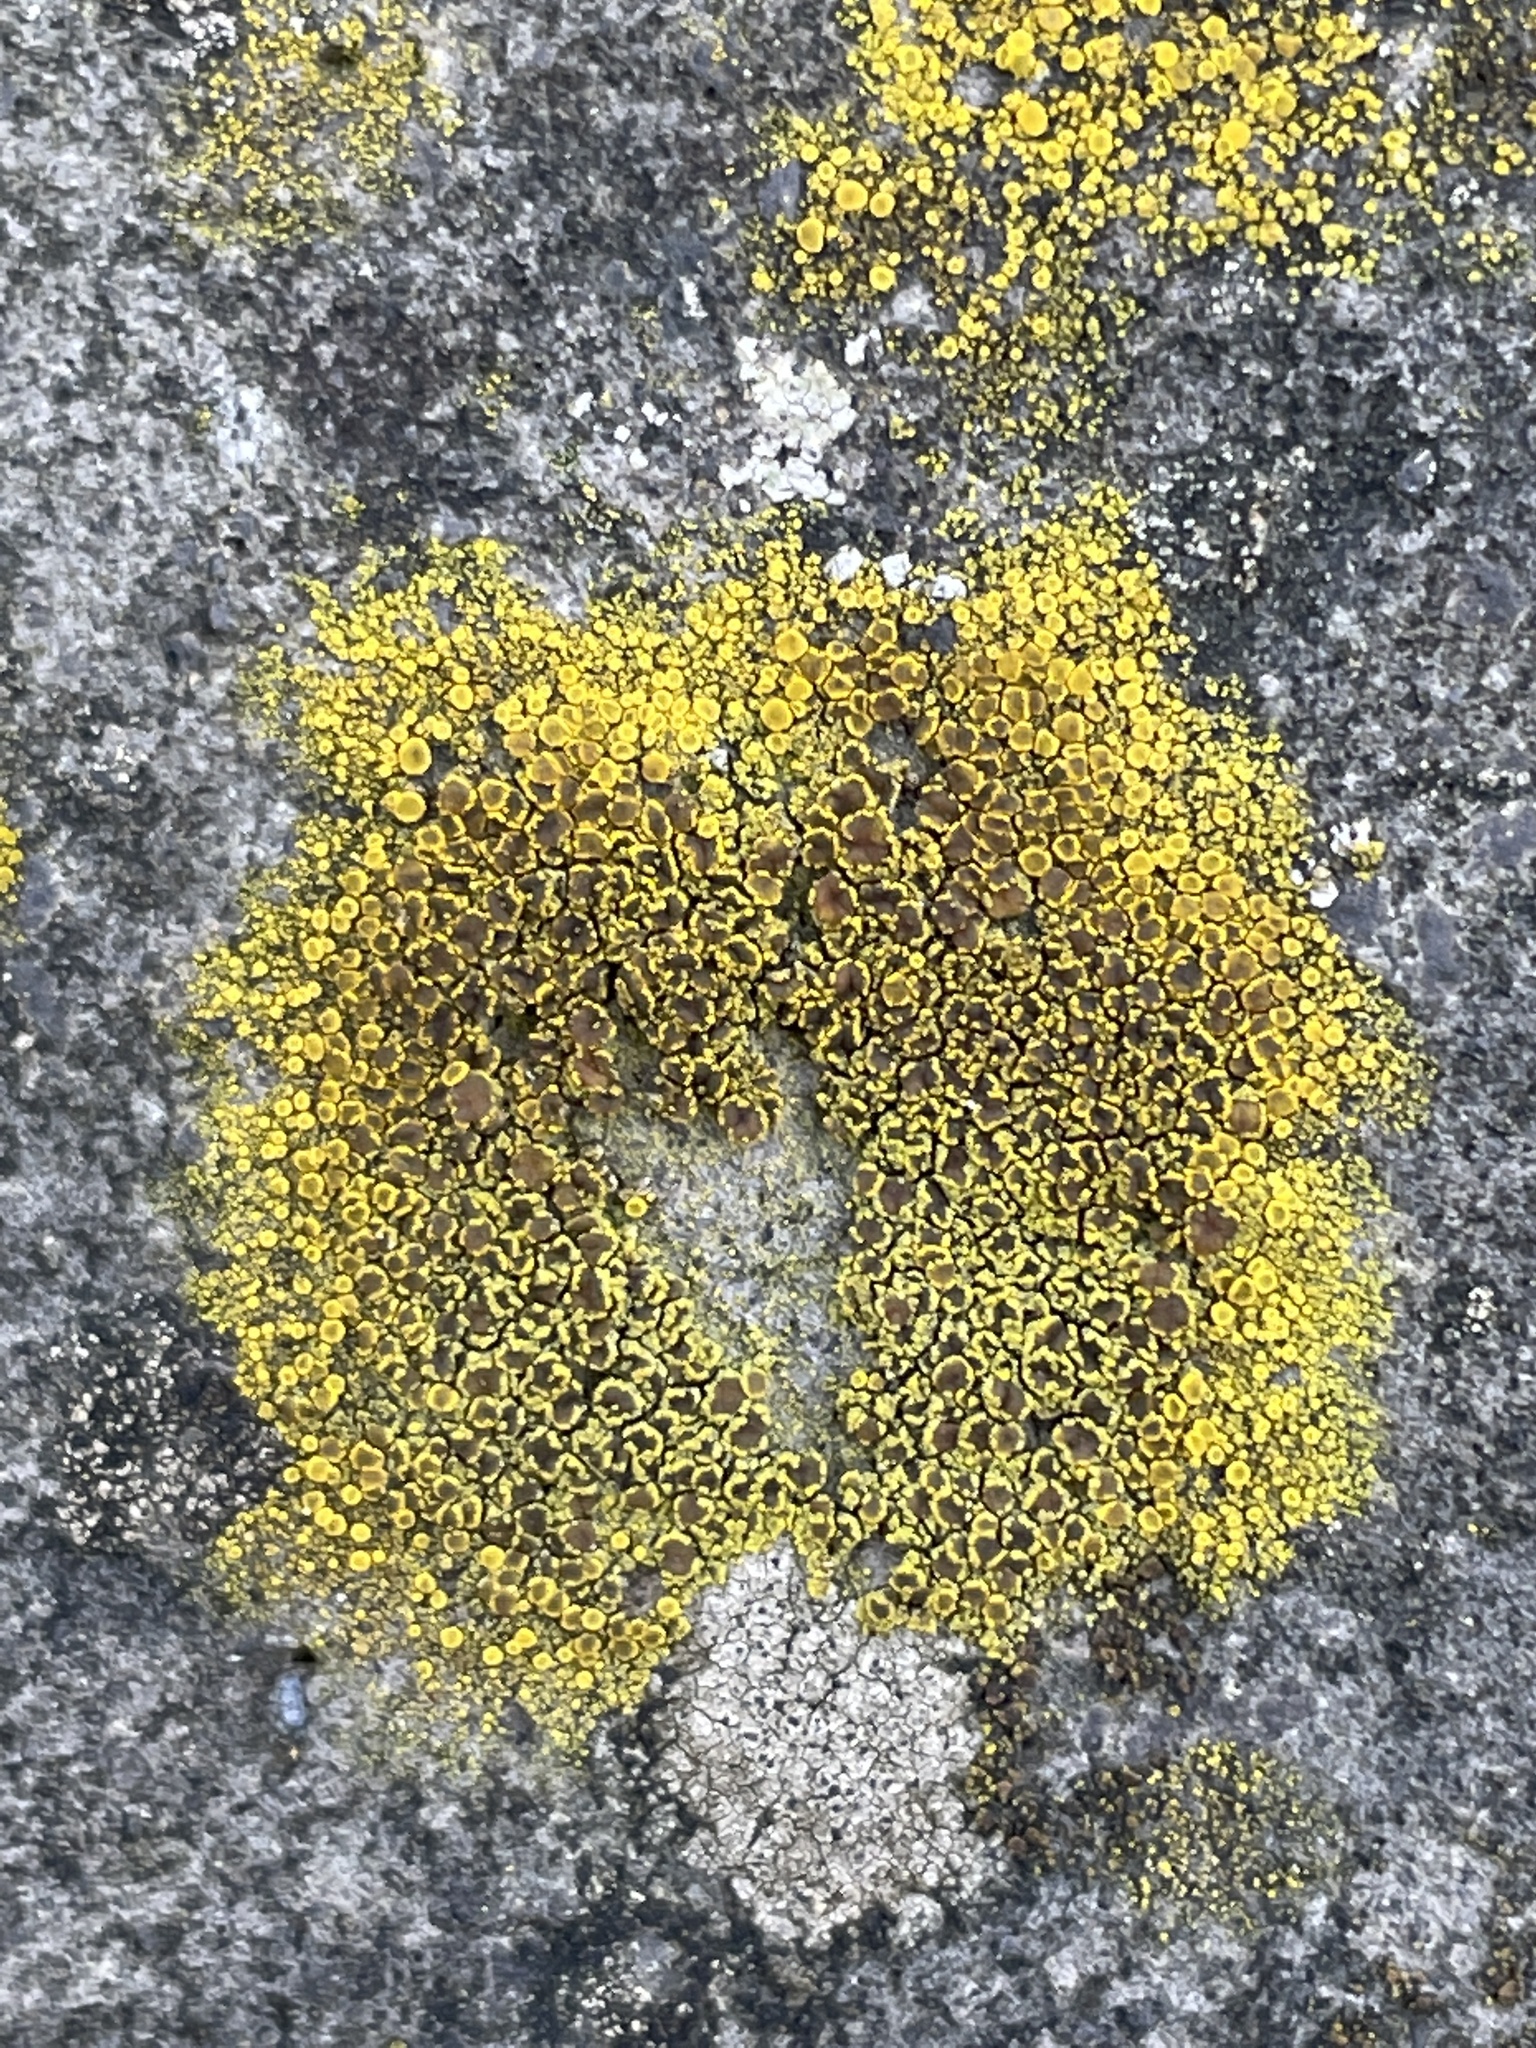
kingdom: Fungi
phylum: Ascomycota
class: Candelariomycetes
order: Candelariales
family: Candelariaceae
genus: Candelariella
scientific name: Candelariella vitellina
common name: Common goldspeck
